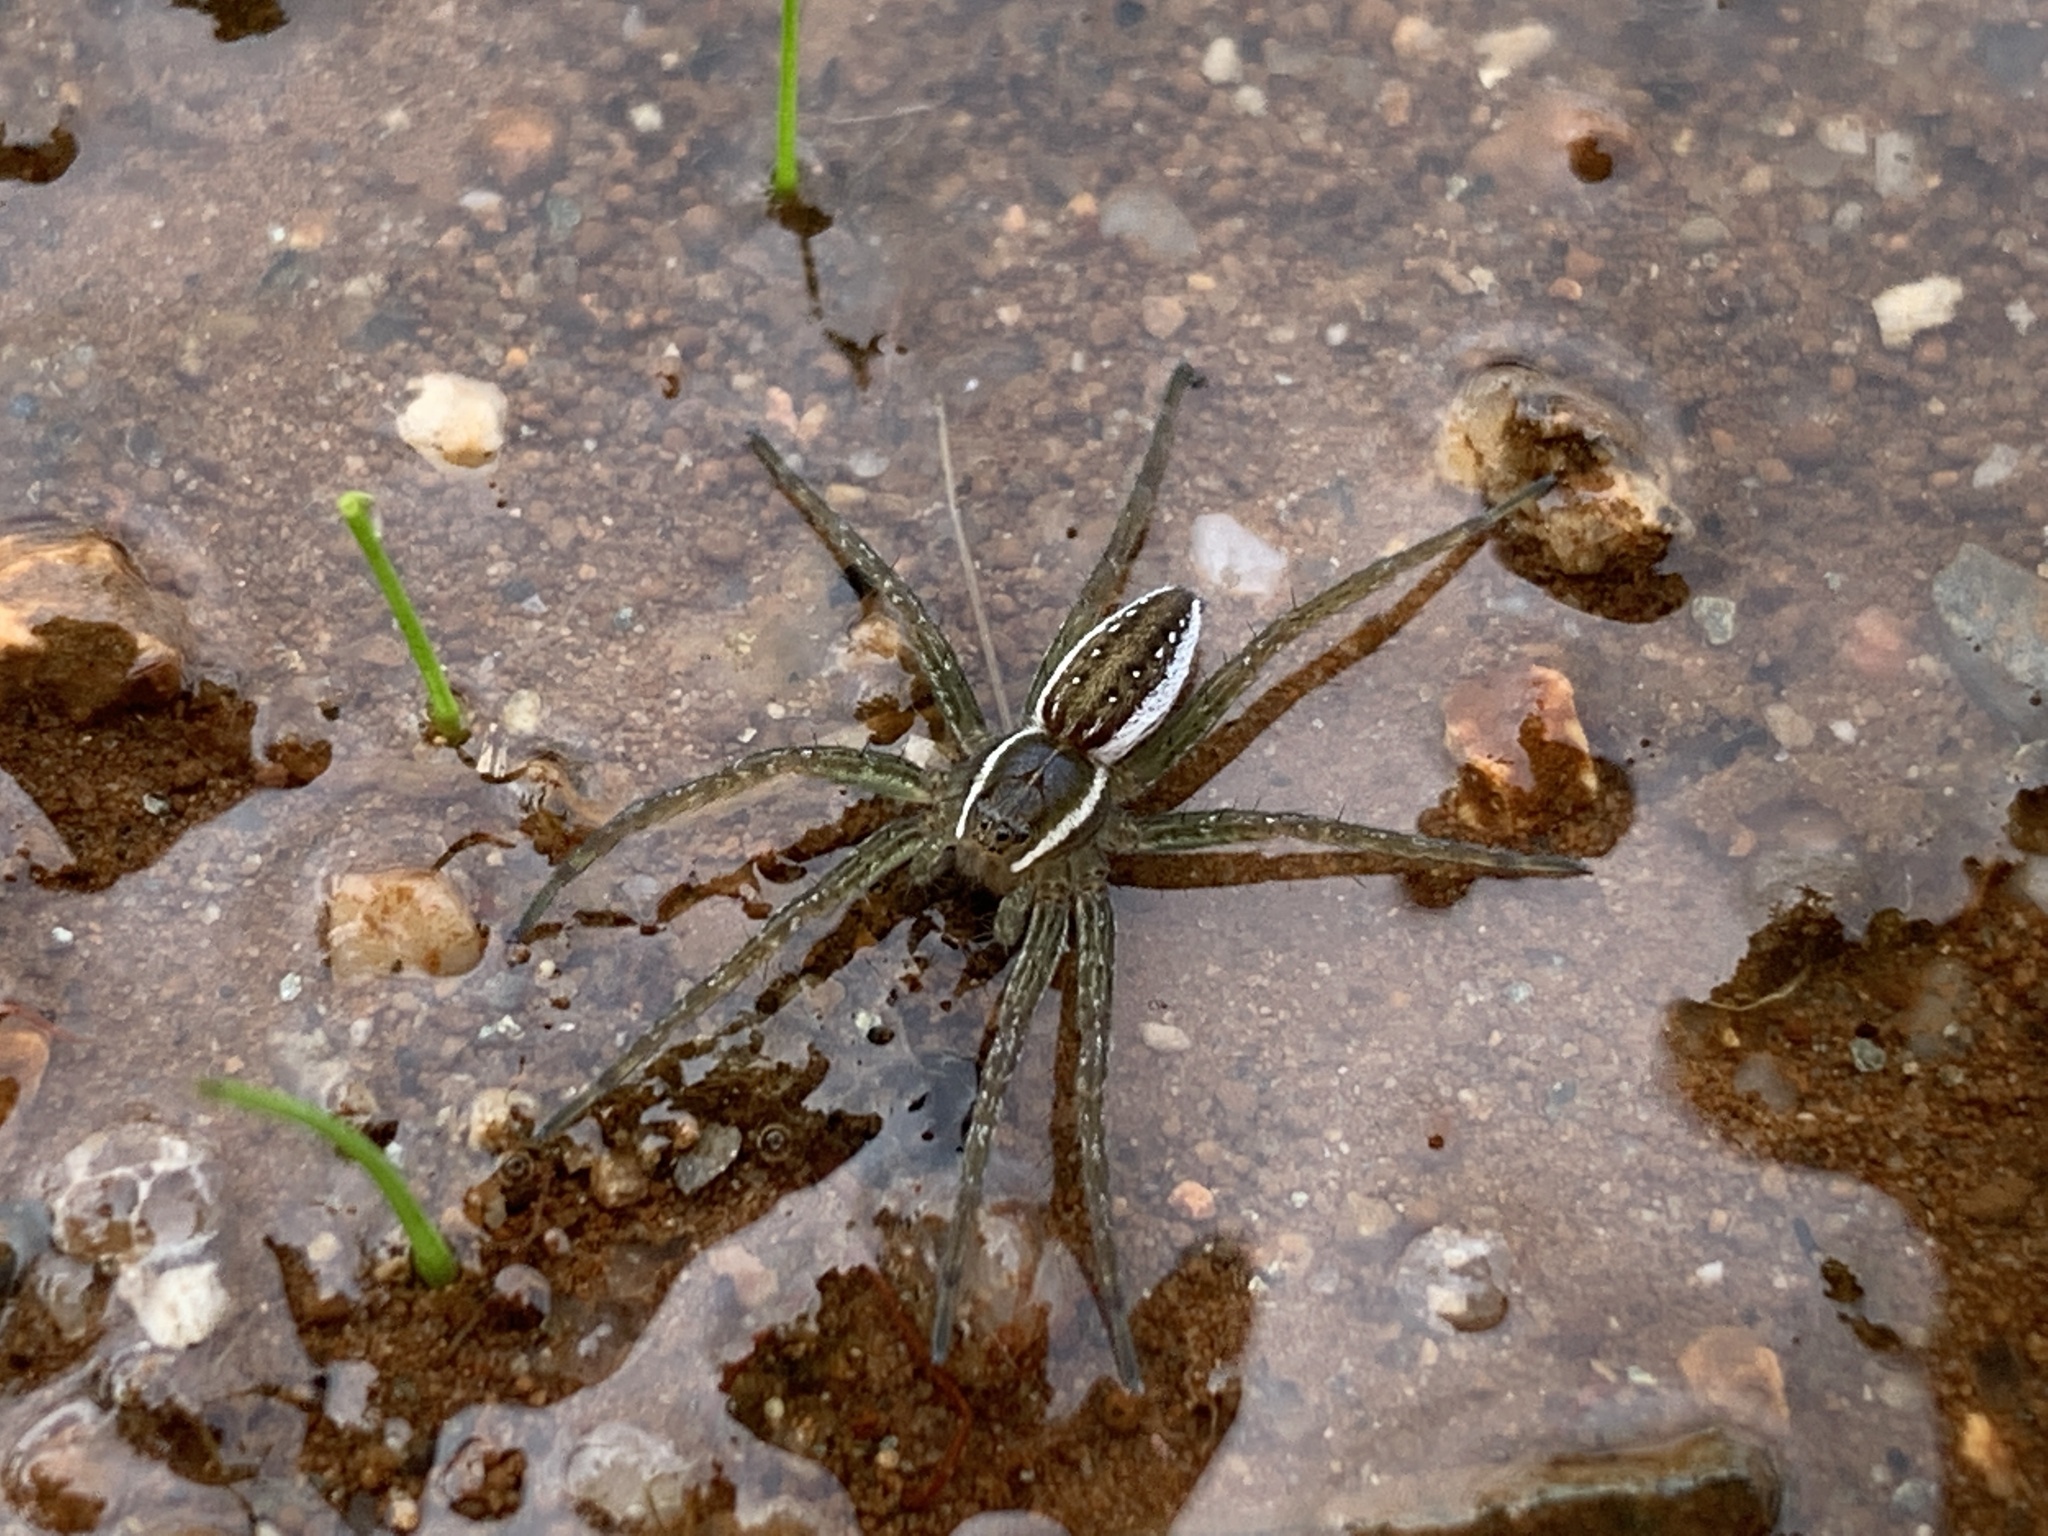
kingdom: Animalia
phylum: Arthropoda
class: Arachnida
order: Araneae
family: Pisauridae
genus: Dolomedes
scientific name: Dolomedes triton
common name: Six-spotted fishing spider
